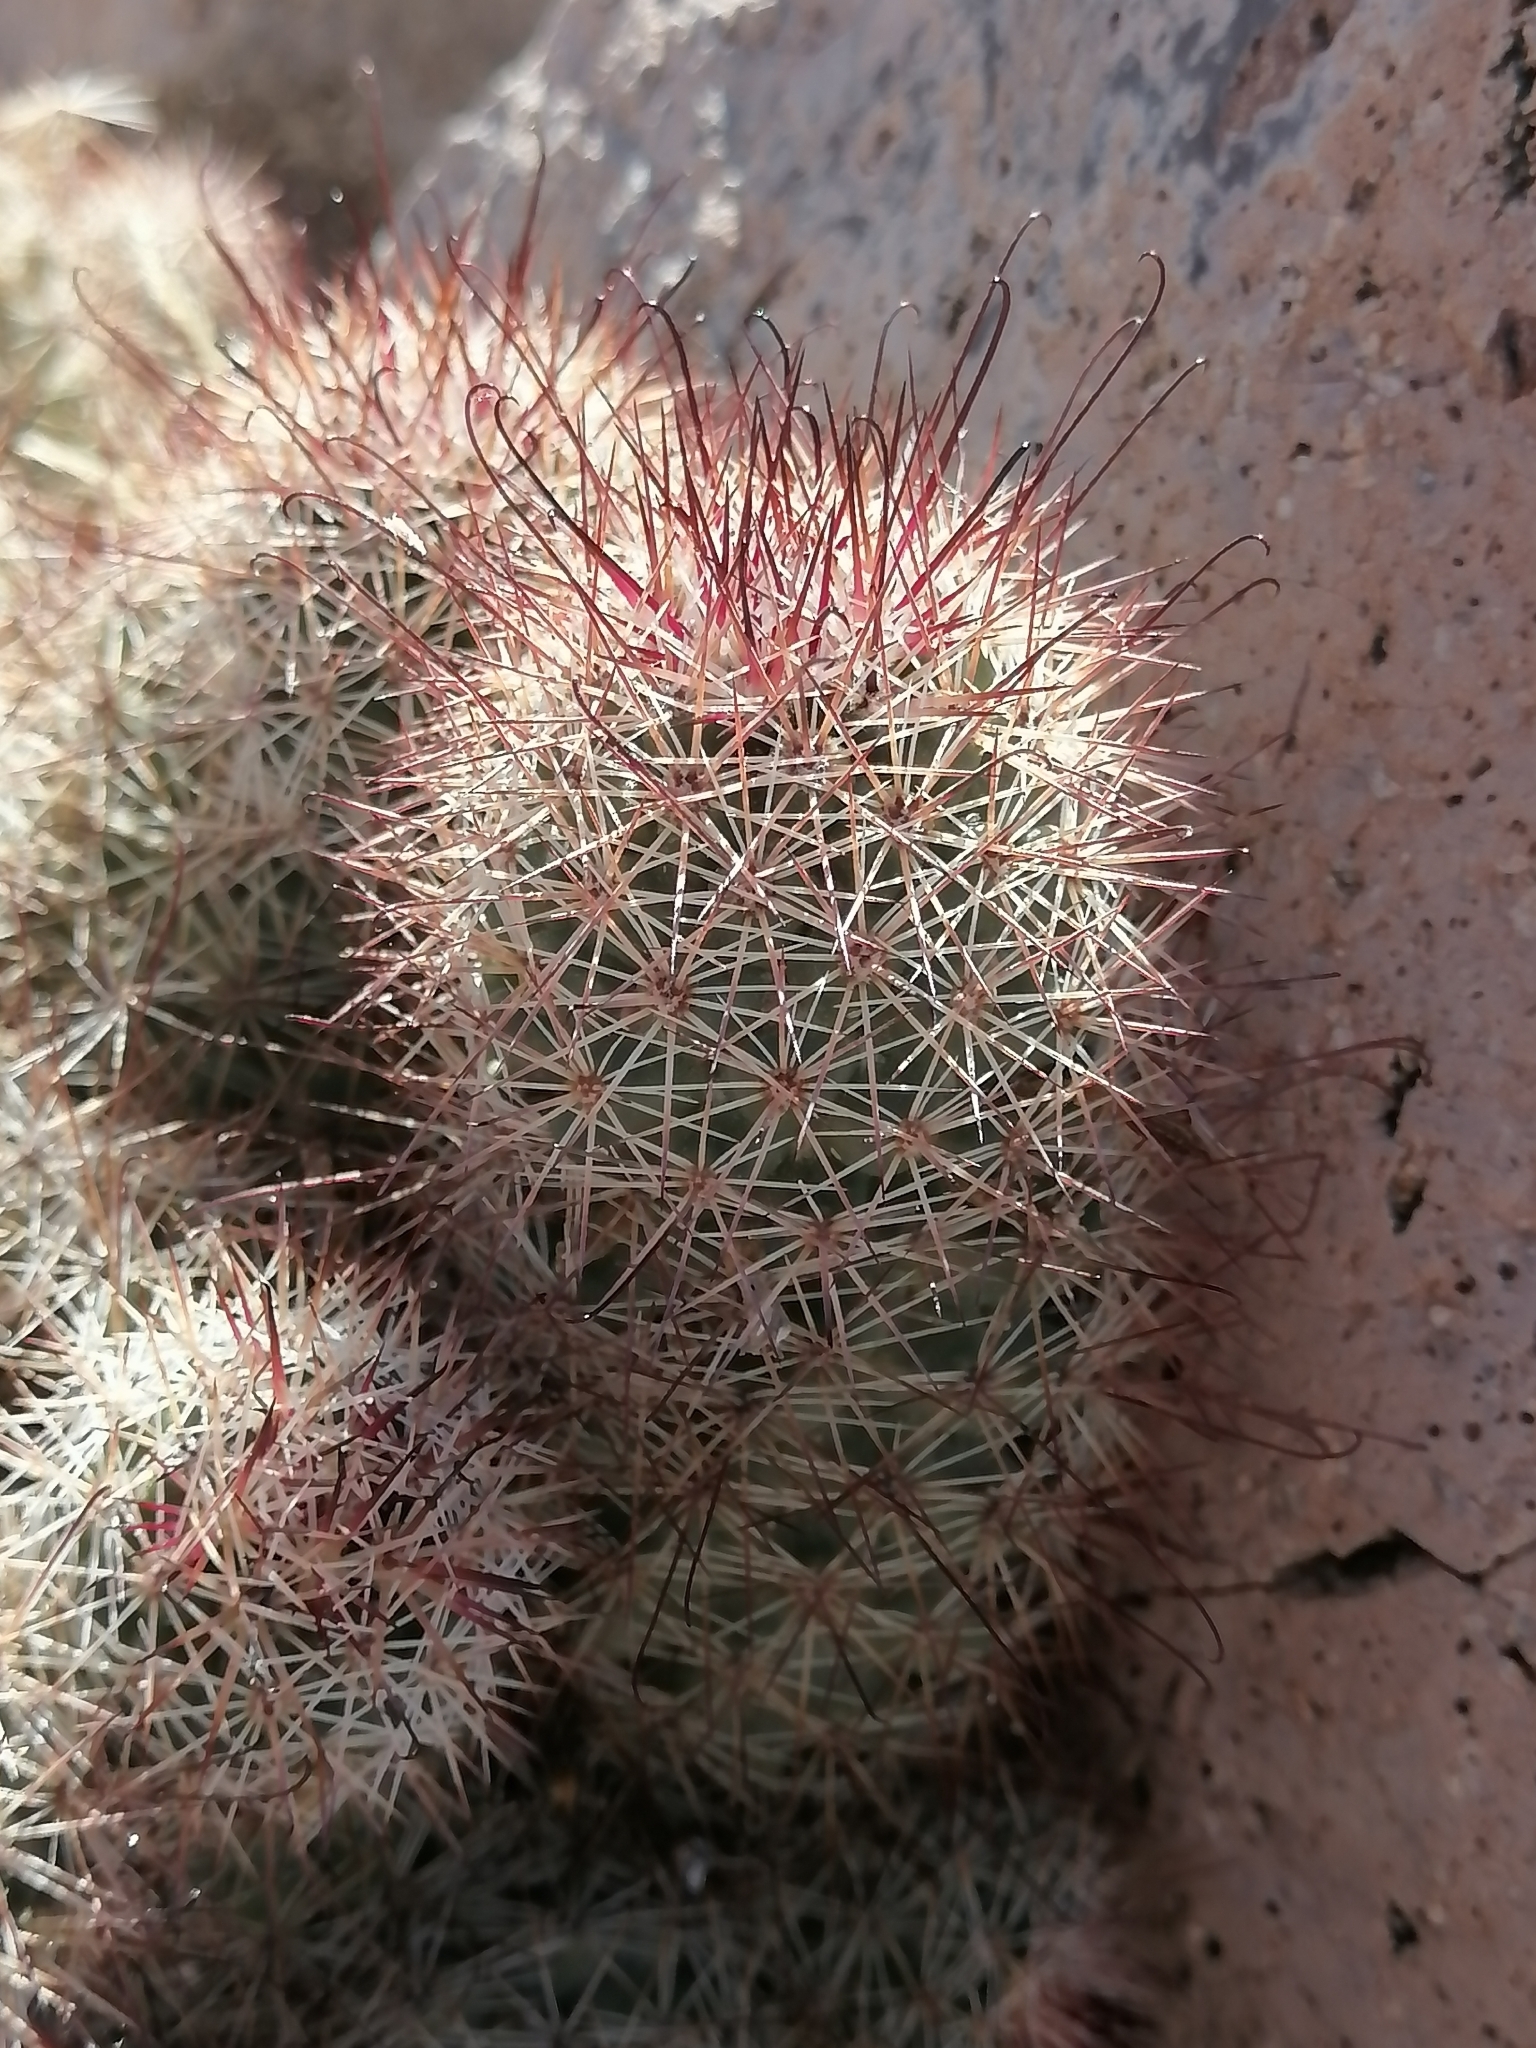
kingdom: Plantae
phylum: Tracheophyta
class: Magnoliopsida
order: Caryophyllales
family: Cactaceae
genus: Cochemiea
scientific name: Cochemiea fraileana
